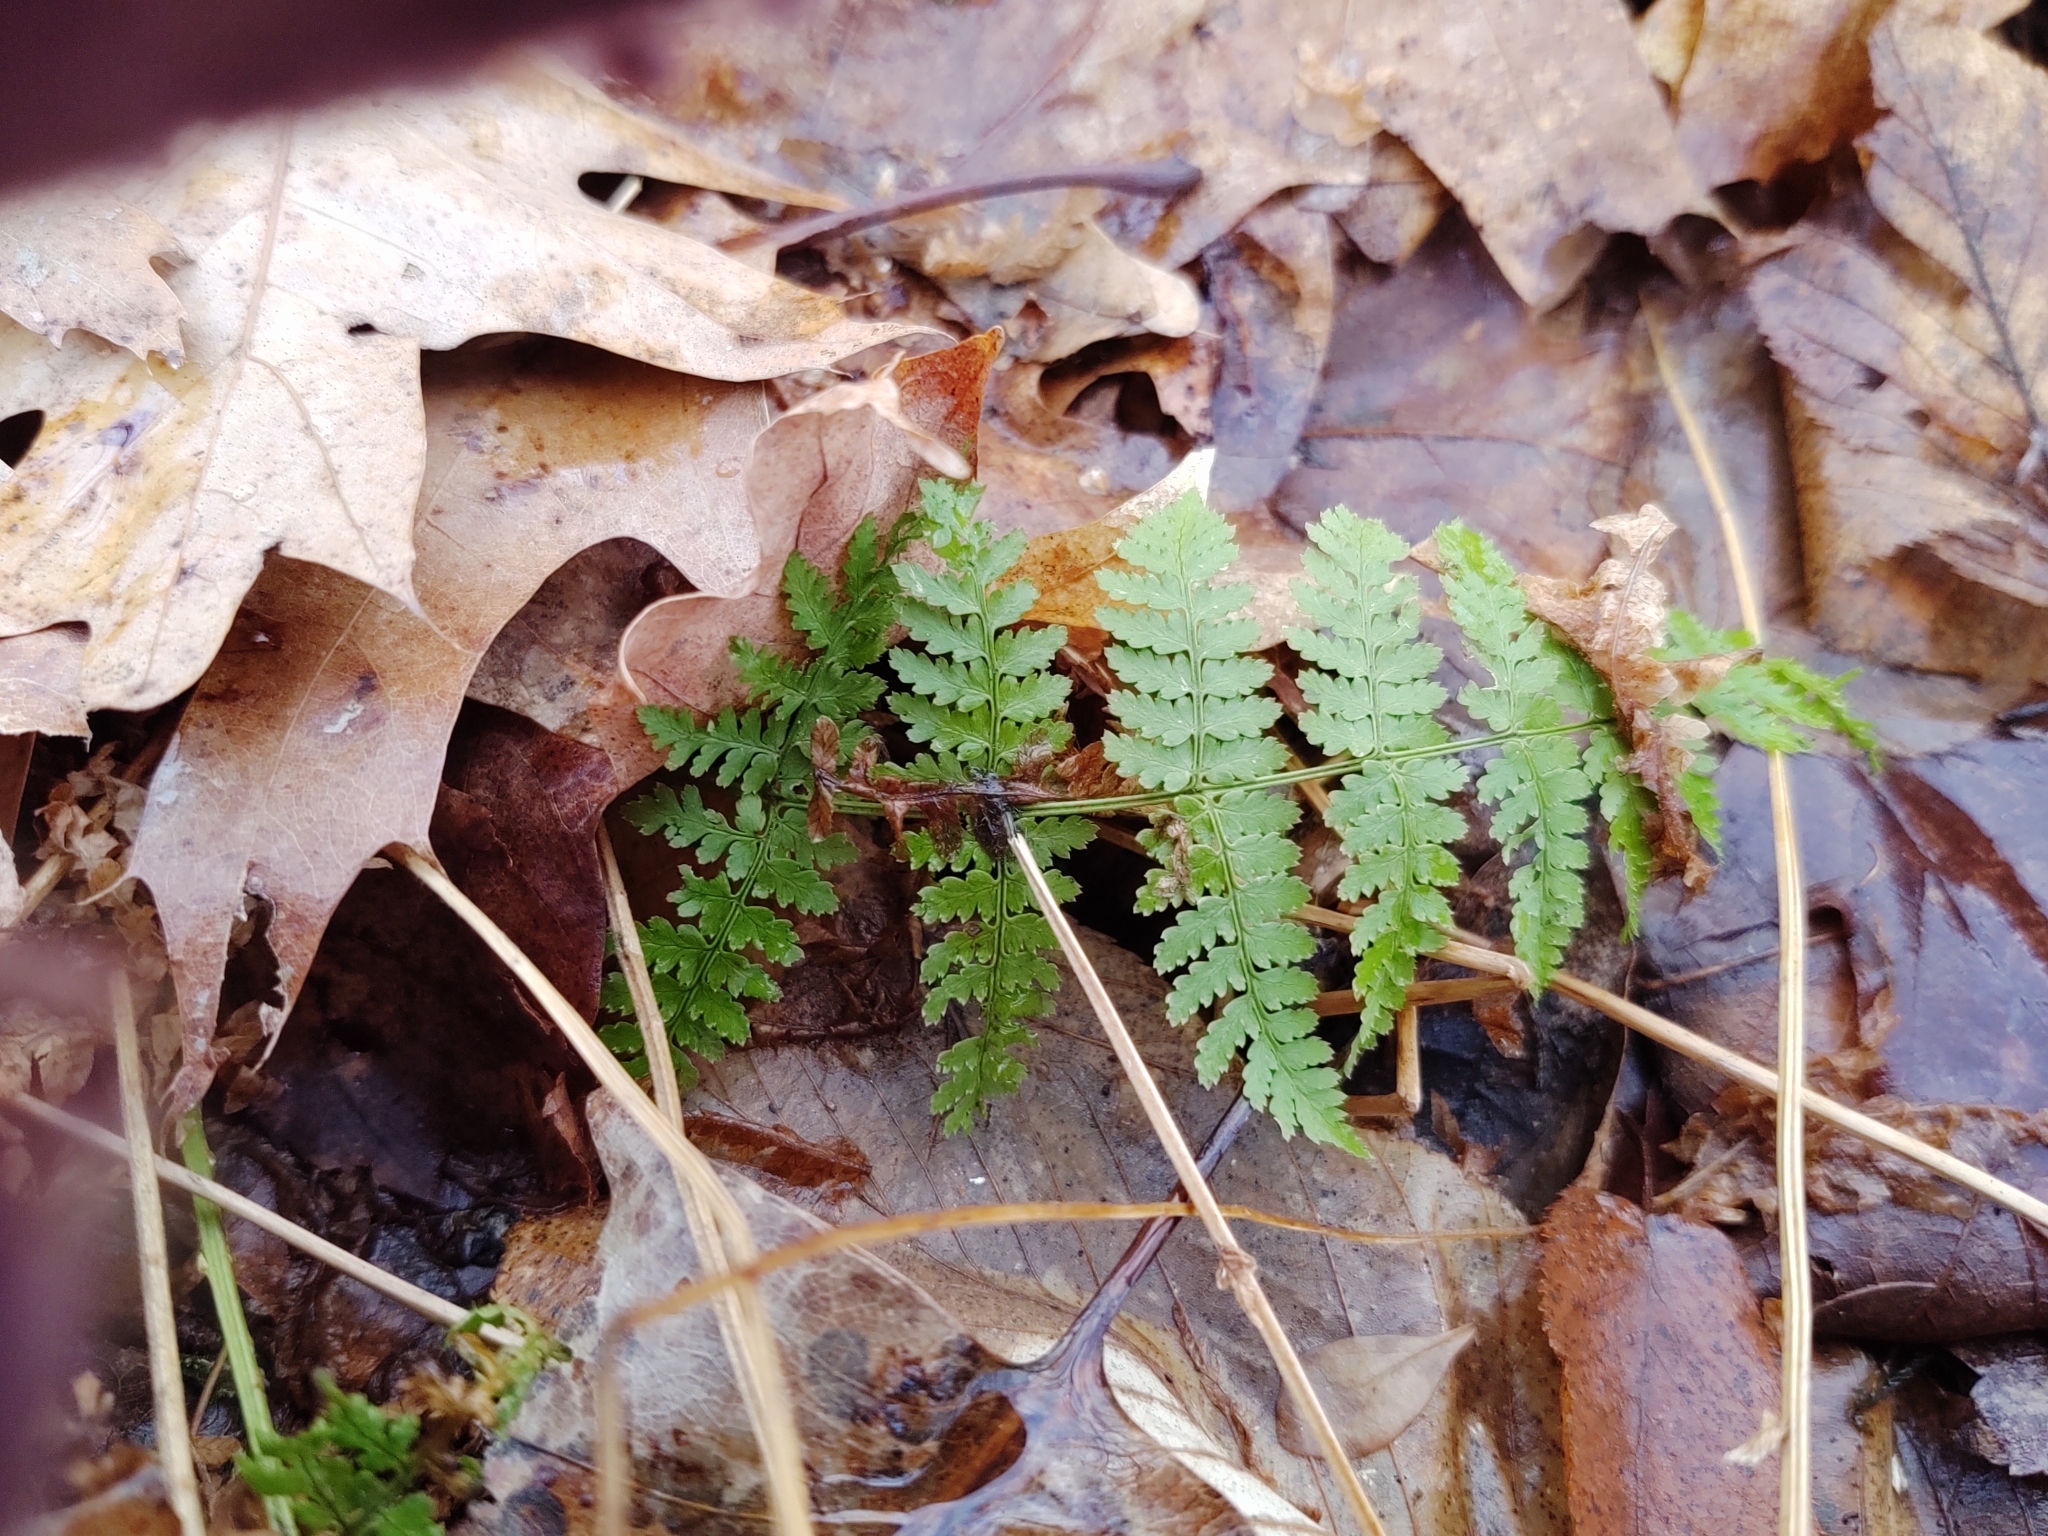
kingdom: Plantae
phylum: Tracheophyta
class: Polypodiopsida
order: Polypodiales
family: Dryopteridaceae
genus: Dryopteris
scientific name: Dryopteris intermedia
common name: Evergreen wood fern
